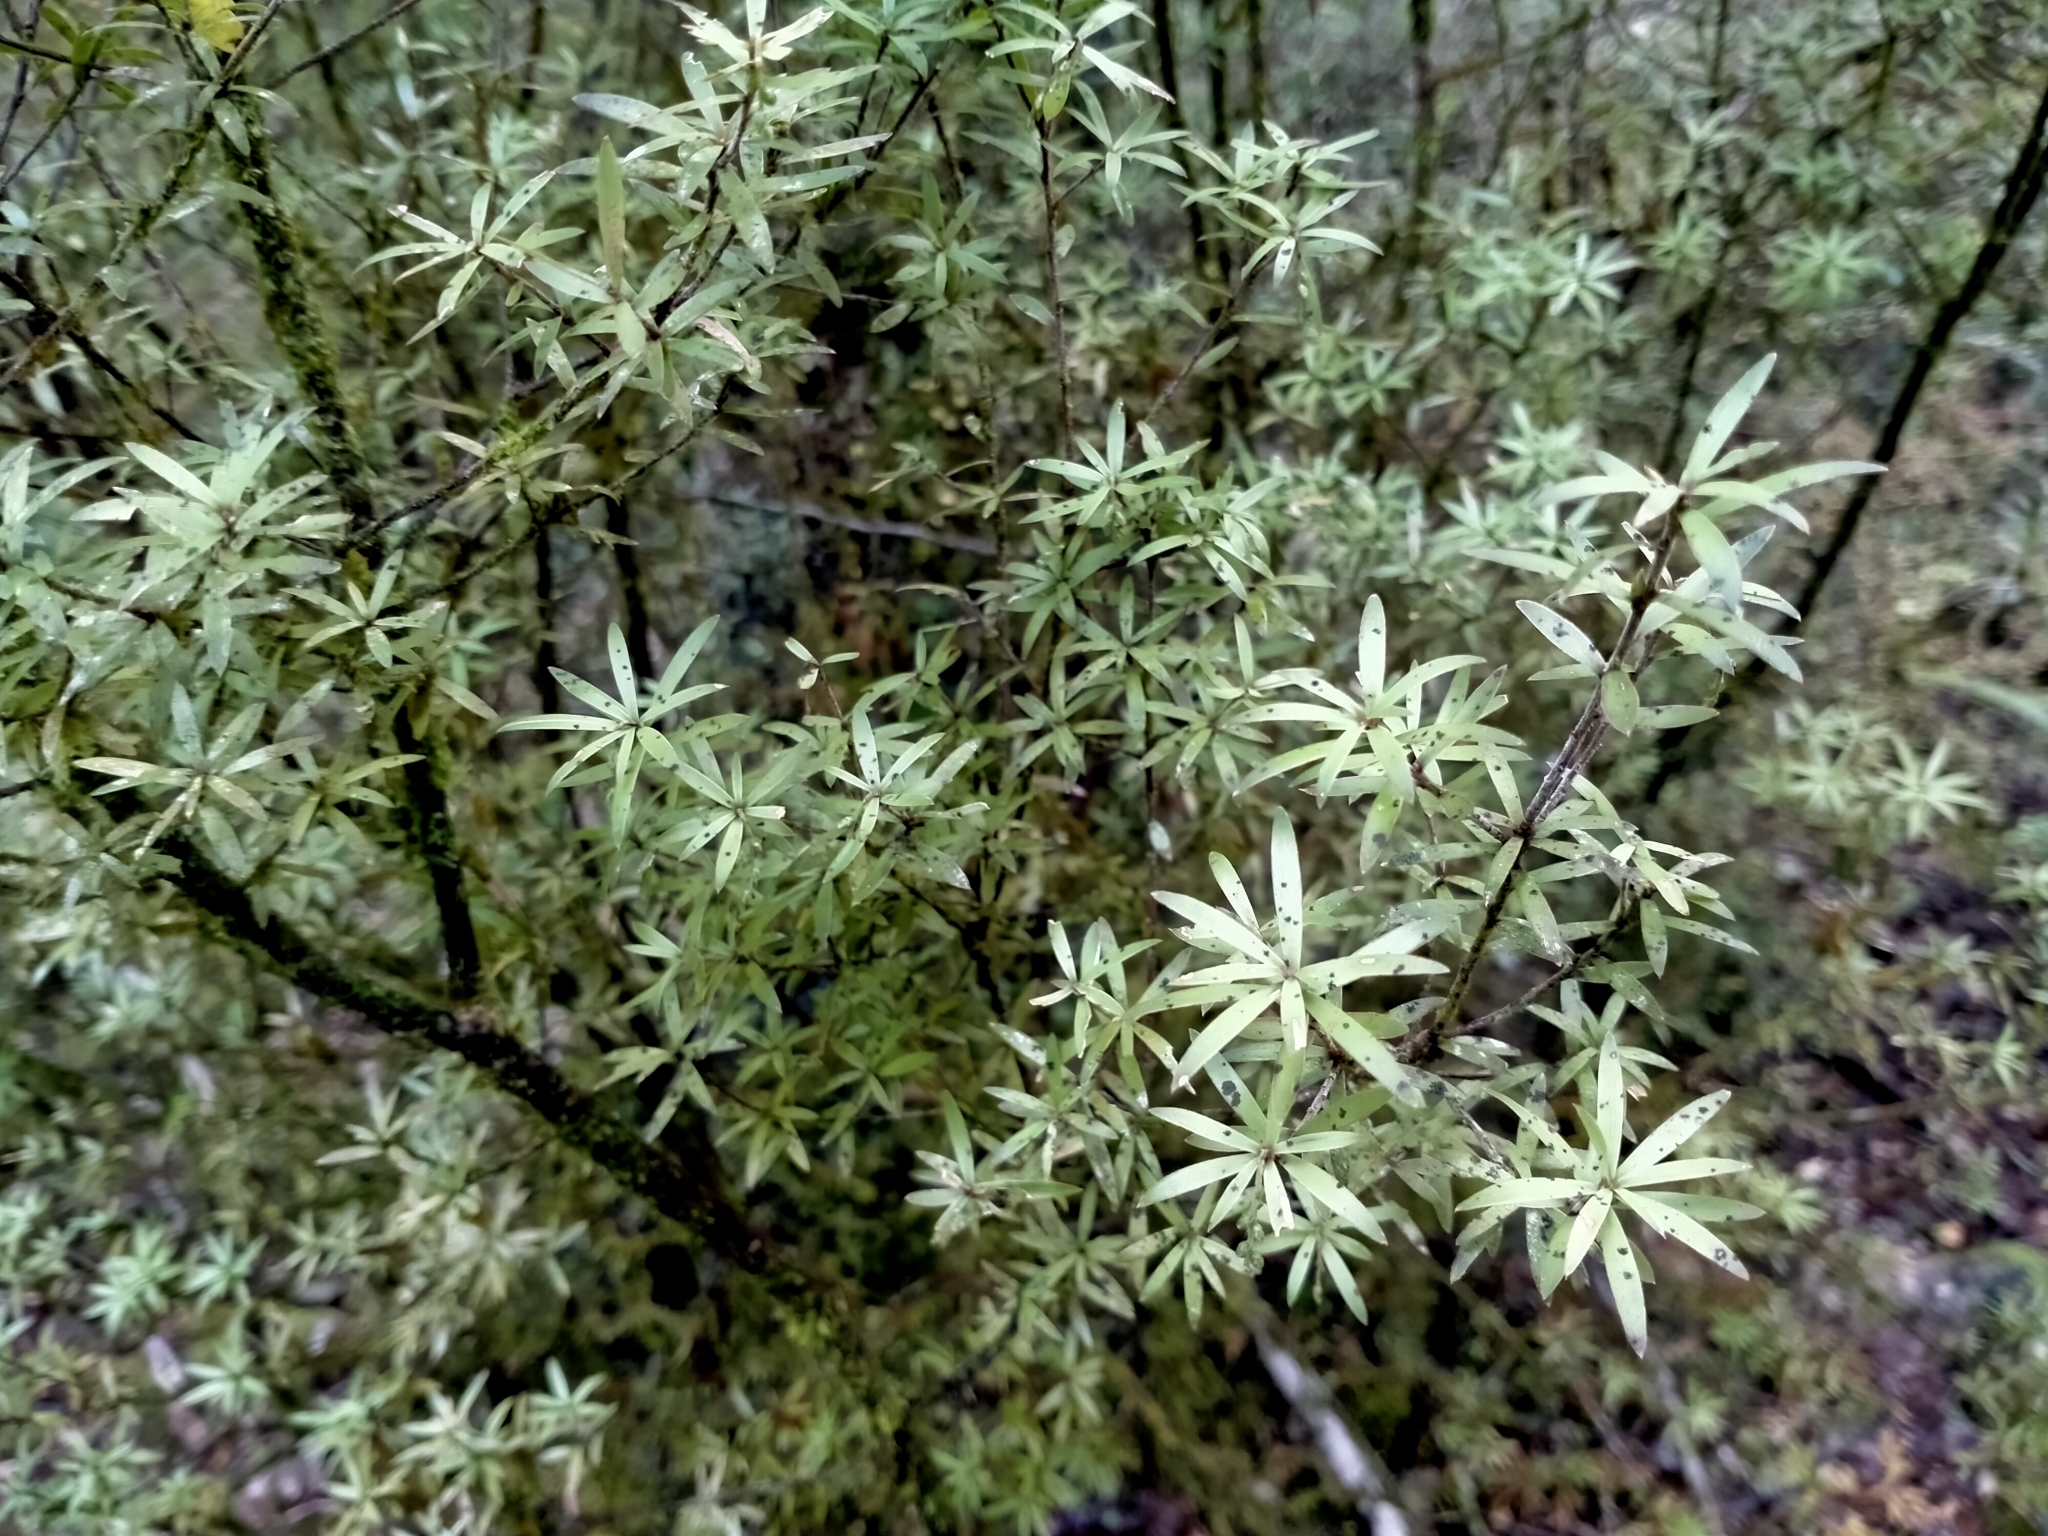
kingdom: Plantae
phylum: Tracheophyta
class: Magnoliopsida
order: Ericales
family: Ericaceae
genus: Leucopogon
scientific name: Leucopogon fasciculatus
